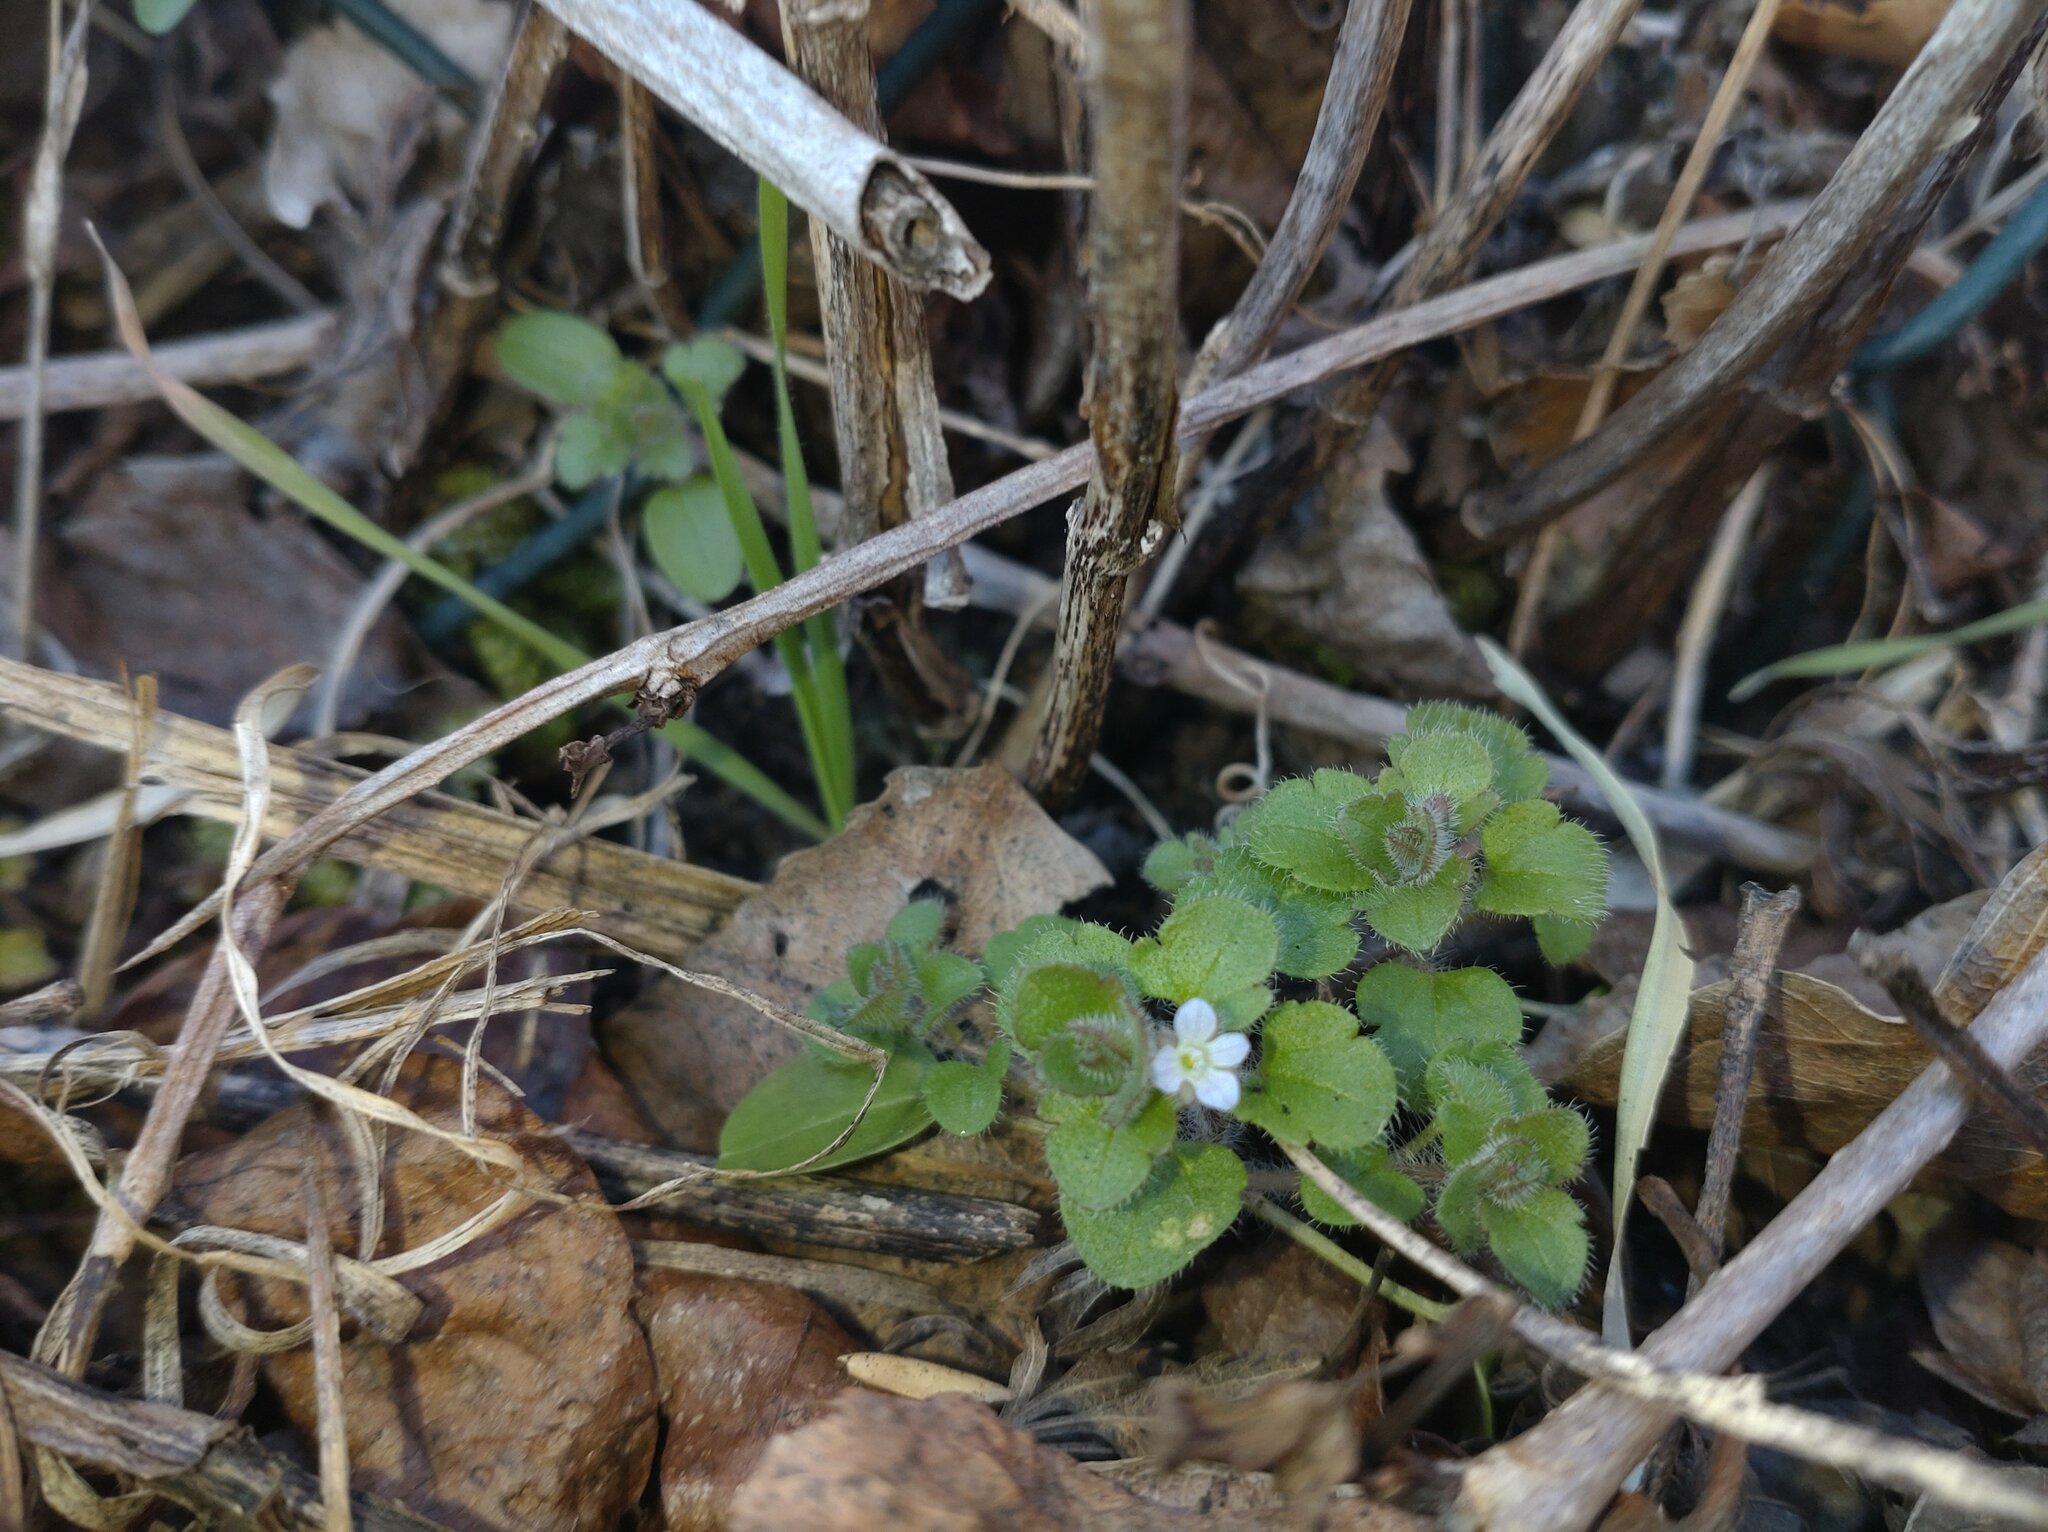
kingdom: Plantae
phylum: Tracheophyta
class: Magnoliopsida
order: Lamiales
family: Plantaginaceae
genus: Veronica
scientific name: Veronica sublobata
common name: False ivy-leaved speedwell
